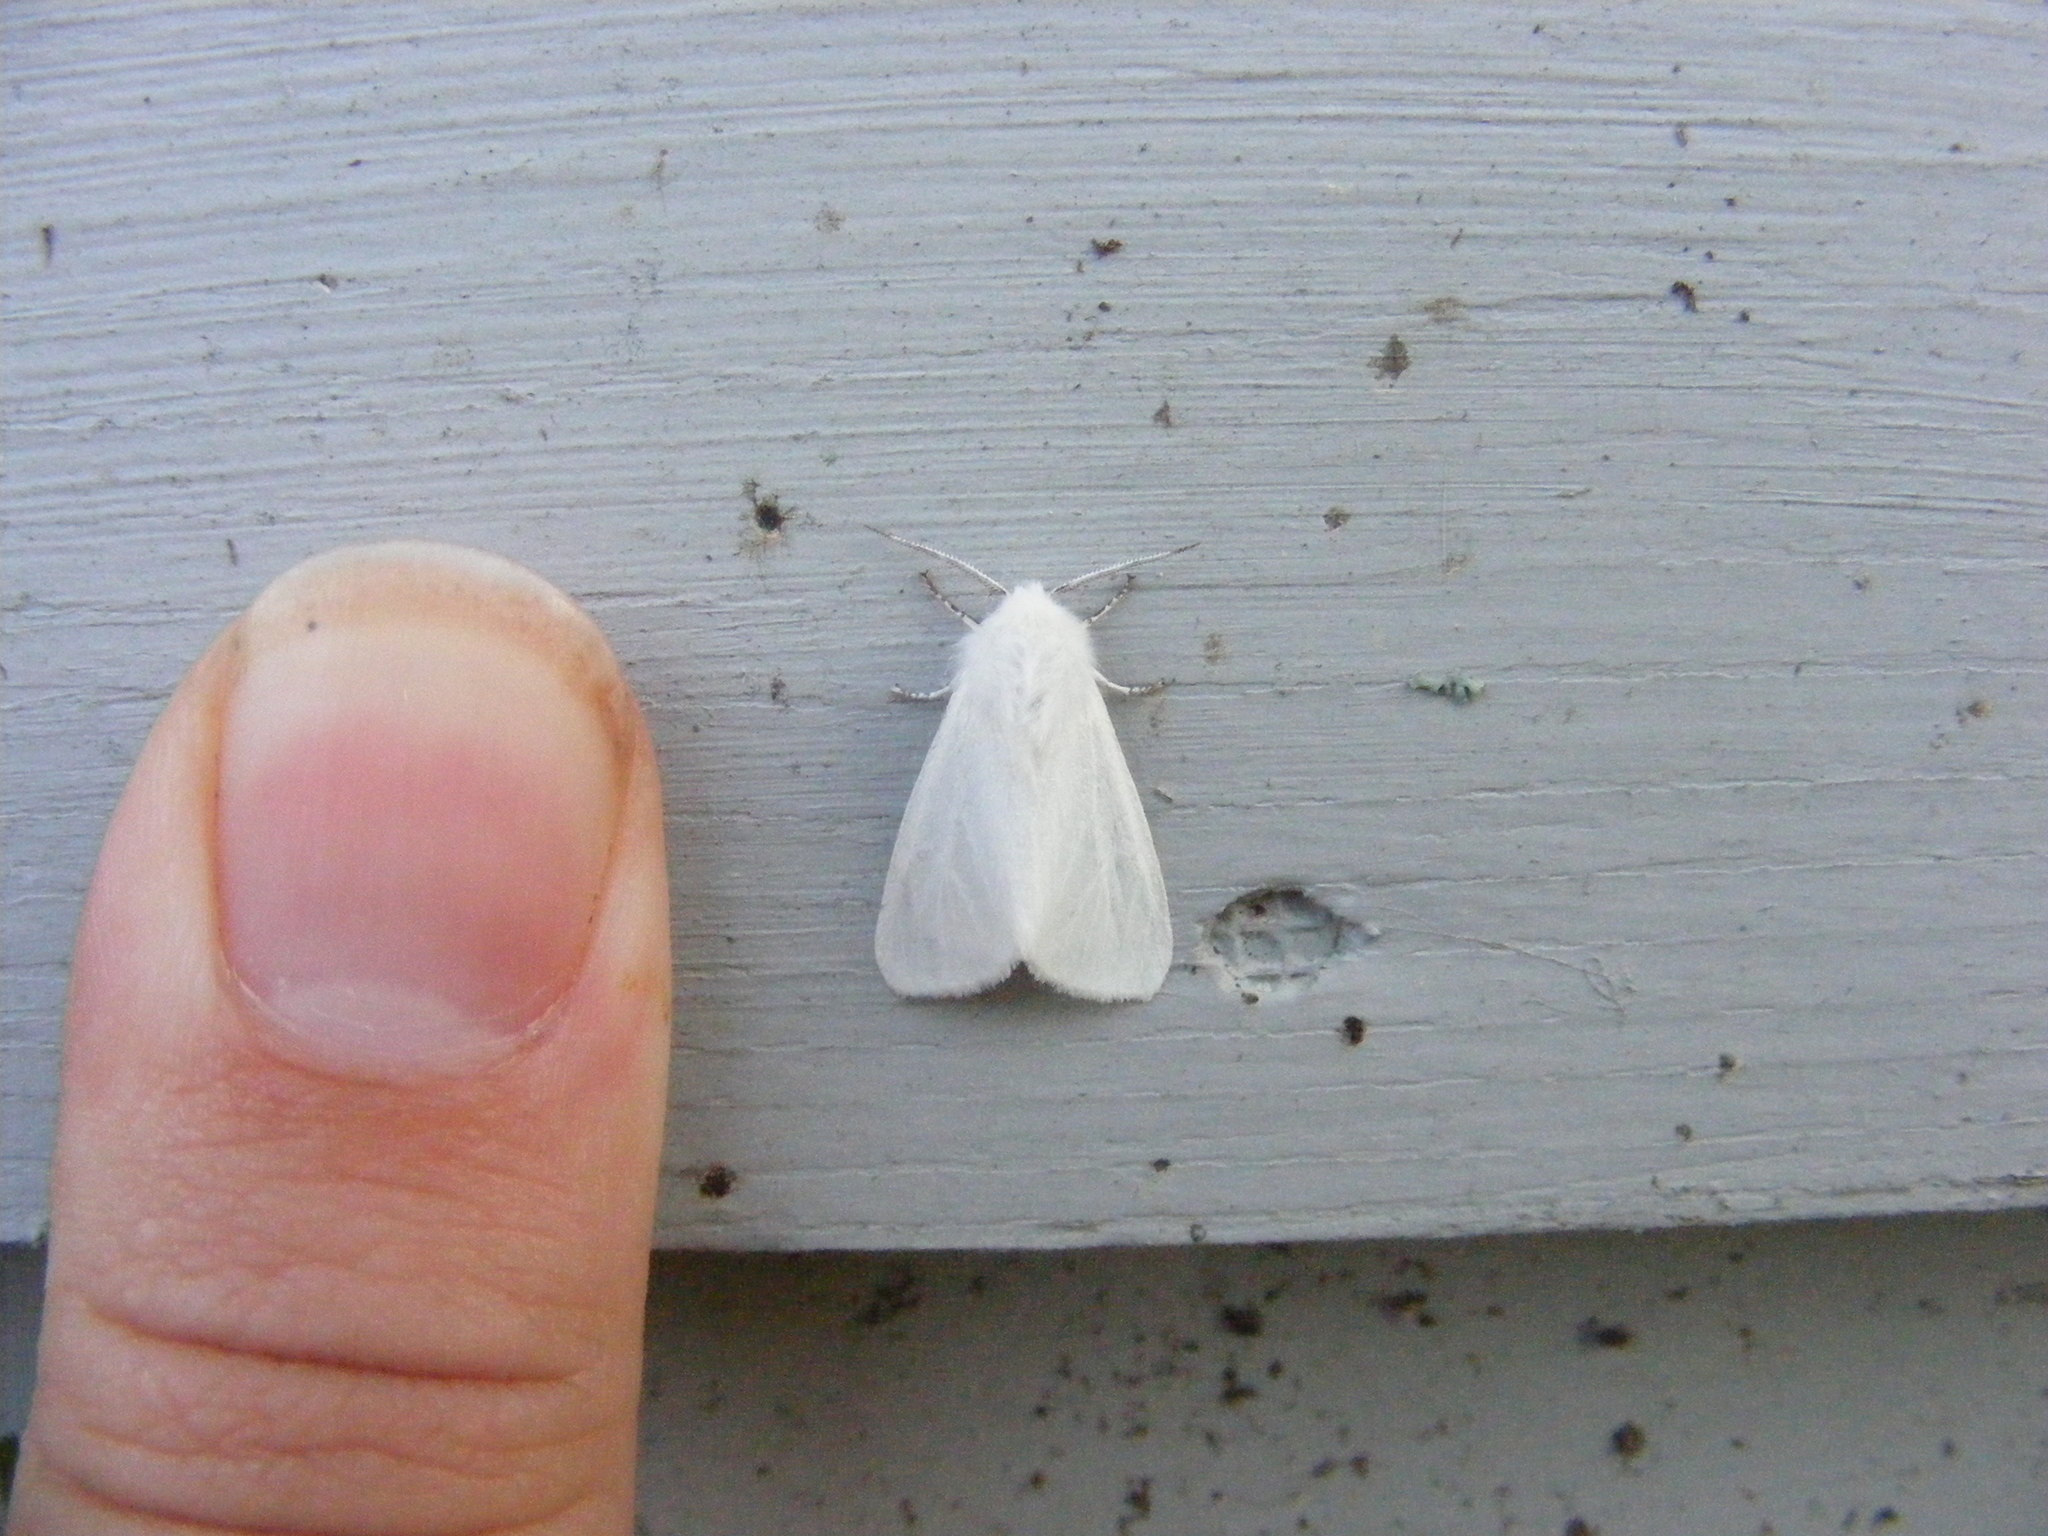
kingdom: Animalia
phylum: Arthropoda
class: Insecta
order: Lepidoptera
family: Erebidae
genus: Hyphantria
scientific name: Hyphantria cunea
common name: American white moth
